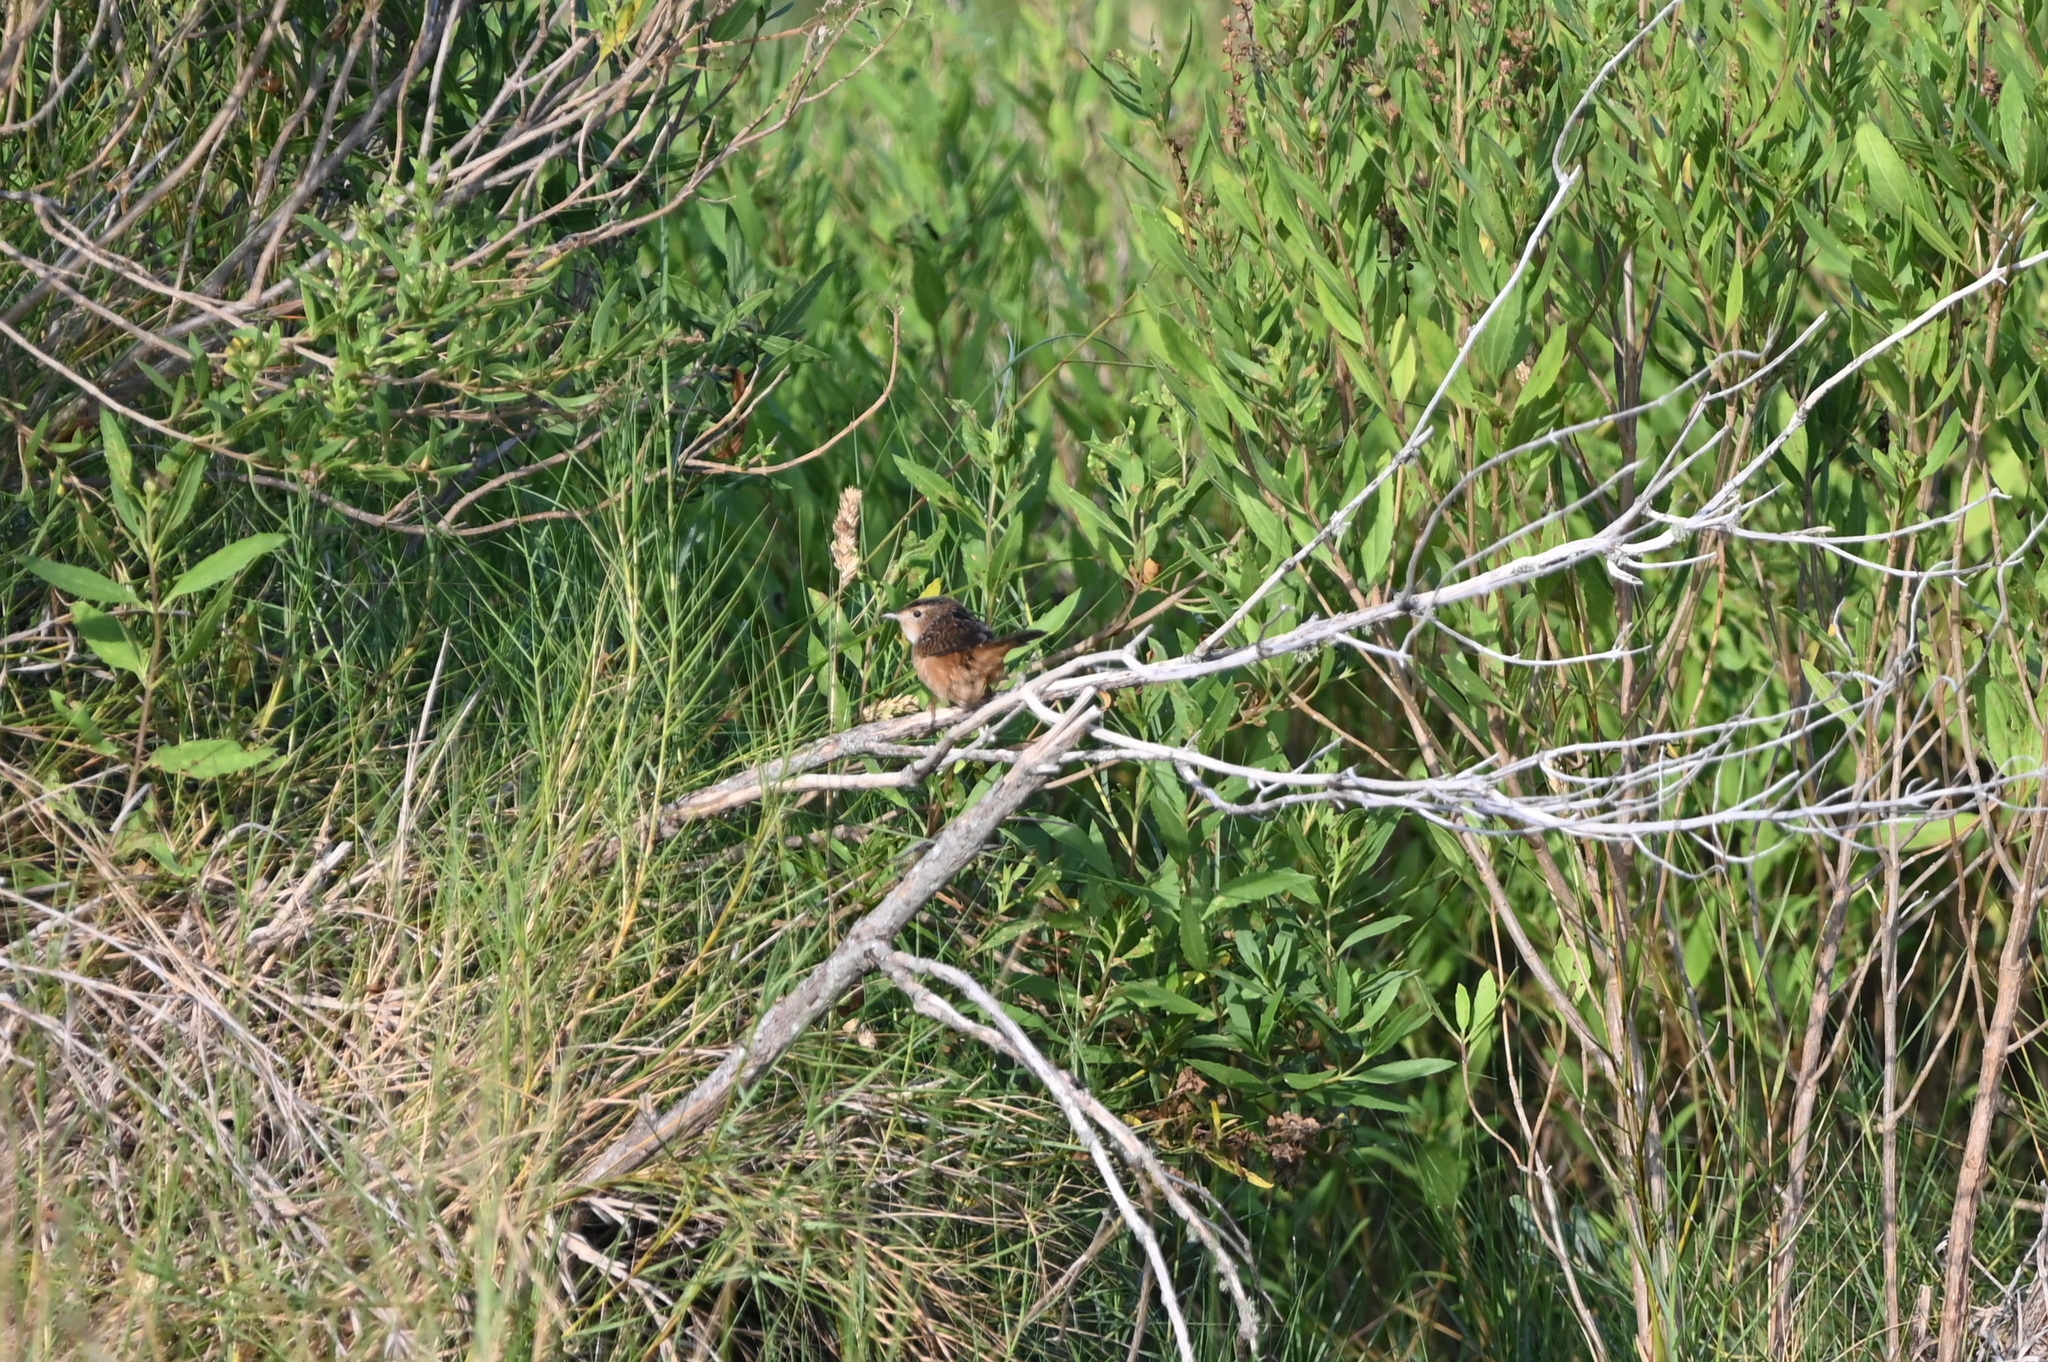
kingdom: Animalia
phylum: Chordata
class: Aves
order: Passeriformes
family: Troglodytidae
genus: Cistothorus
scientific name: Cistothorus palustris
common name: Marsh wren
